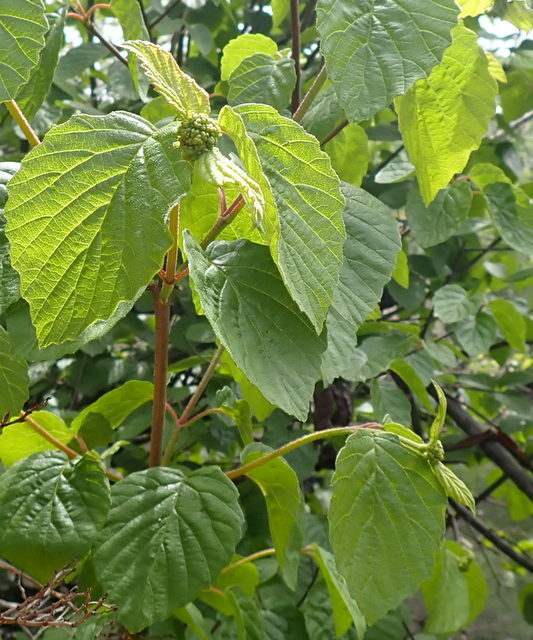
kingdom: Plantae
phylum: Tracheophyta
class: Magnoliopsida
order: Dipsacales
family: Viburnaceae
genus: Viburnum
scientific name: Viburnum scabrellum
